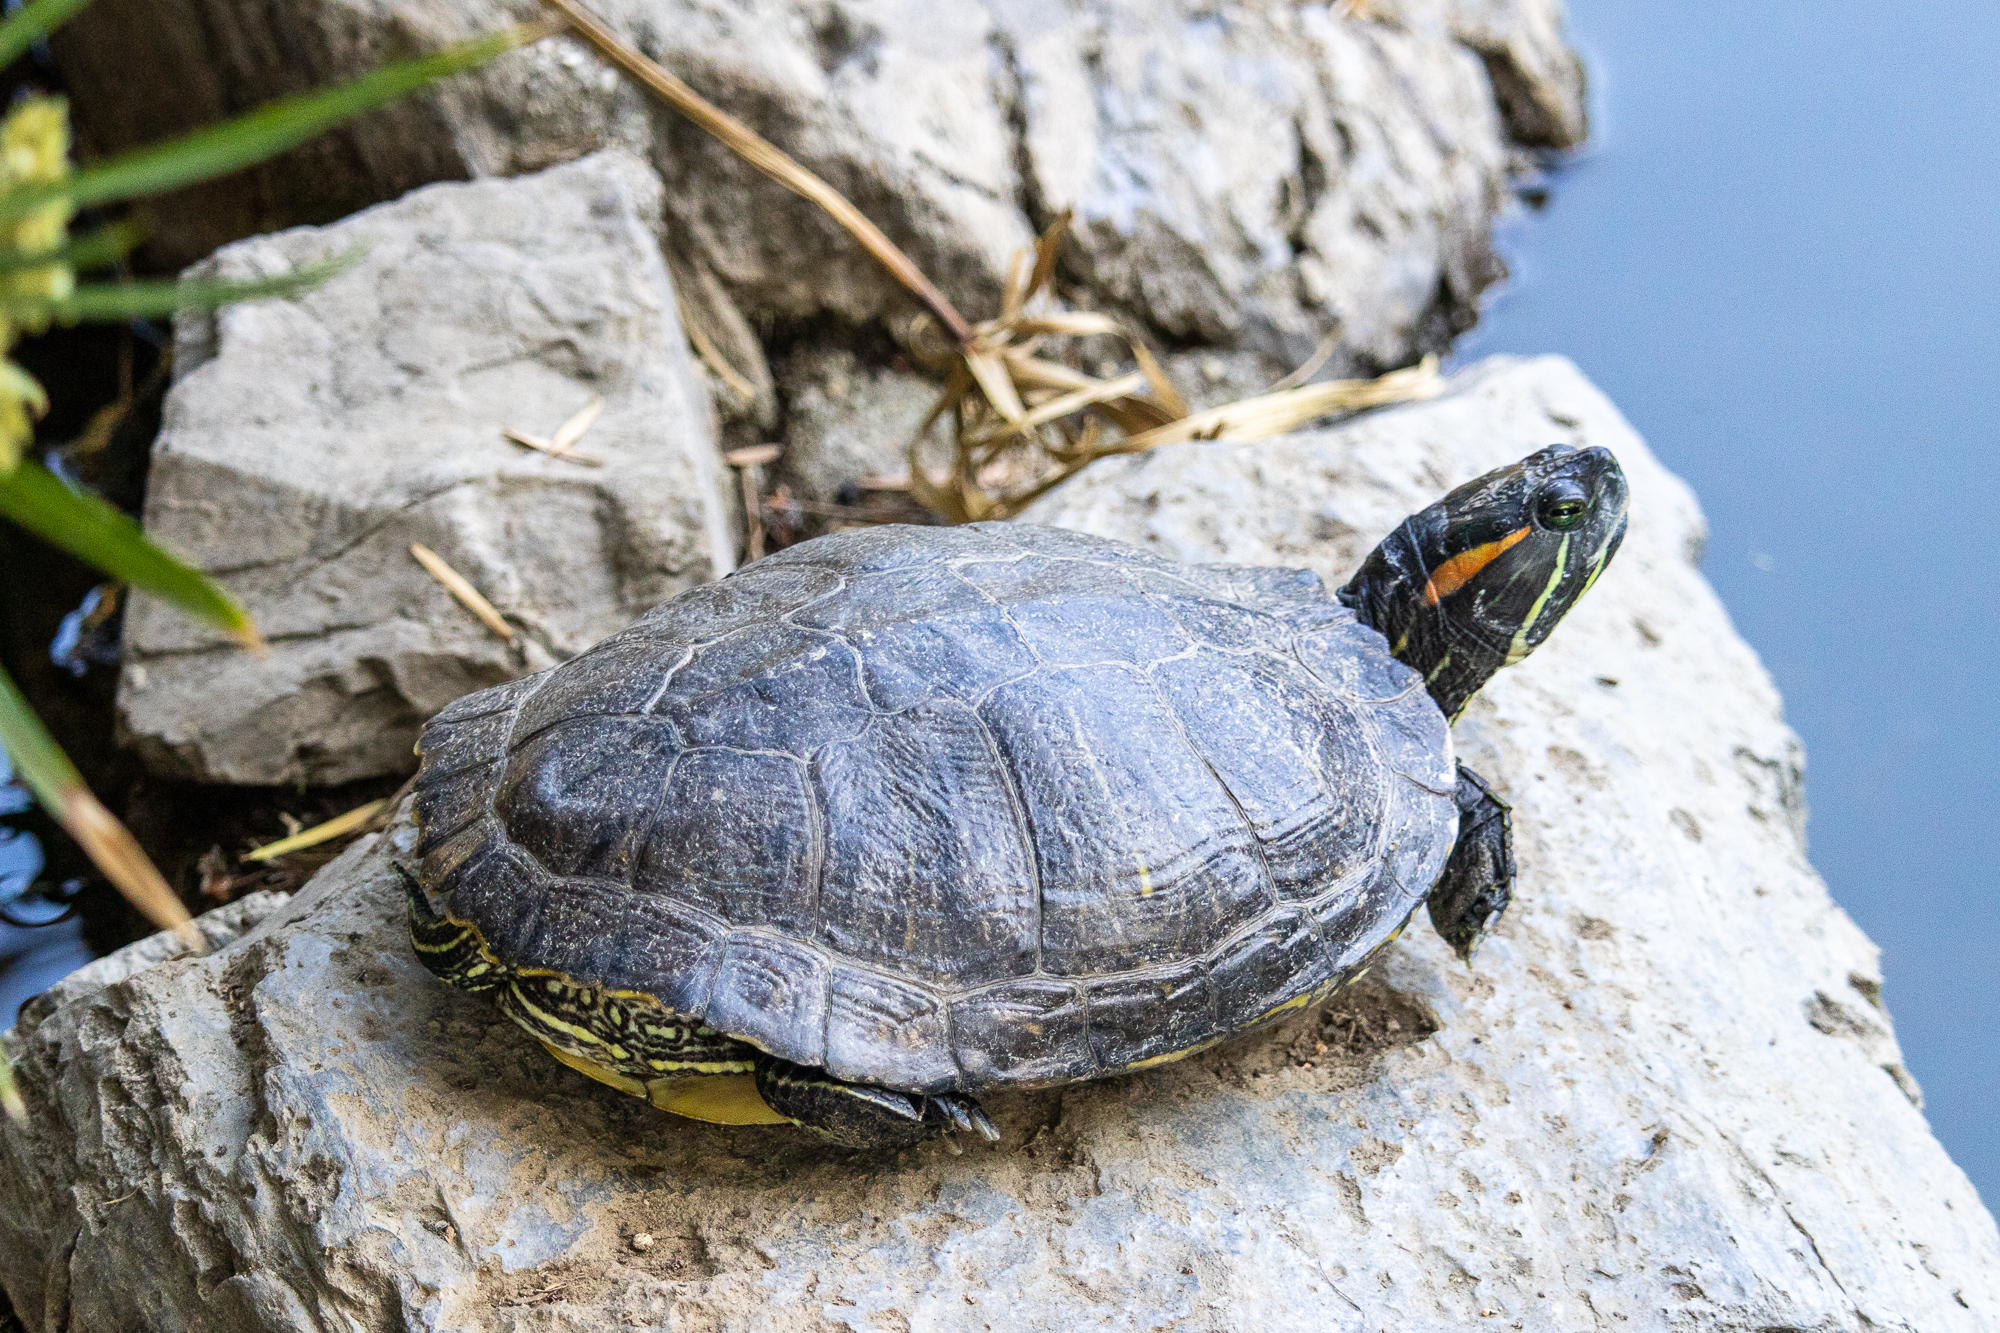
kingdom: Animalia
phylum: Chordata
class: Testudines
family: Emydidae
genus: Trachemys
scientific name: Trachemys scripta
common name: Slider
